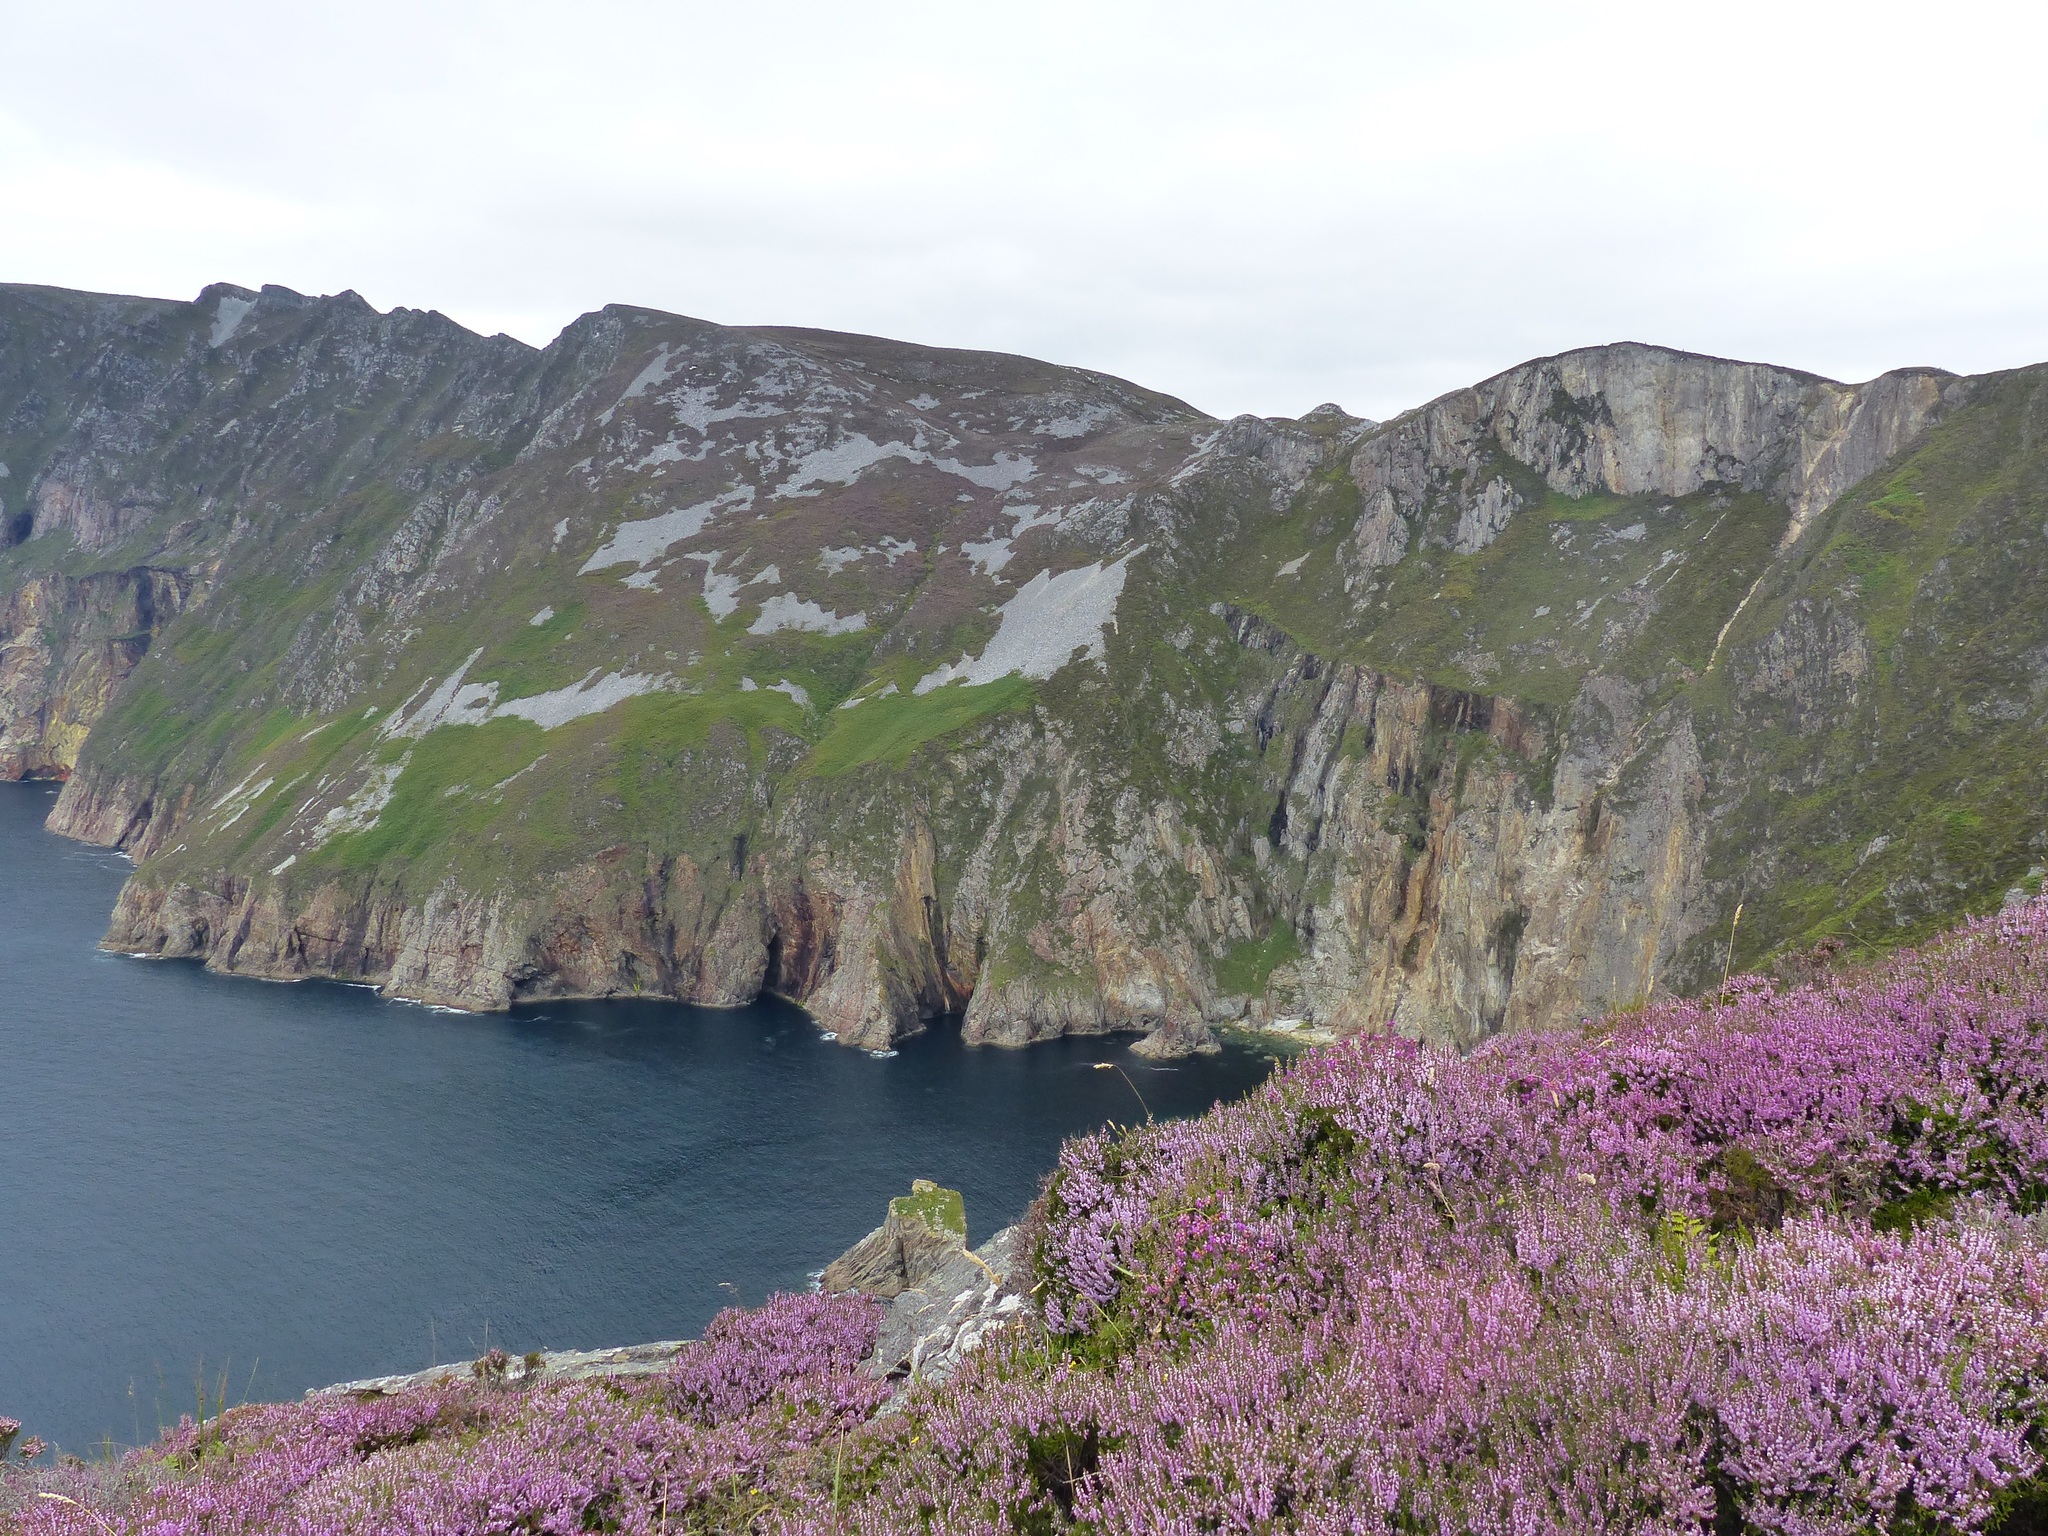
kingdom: Plantae
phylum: Tracheophyta
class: Magnoliopsida
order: Ericales
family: Ericaceae
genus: Calluna
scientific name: Calluna vulgaris
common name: Heather
